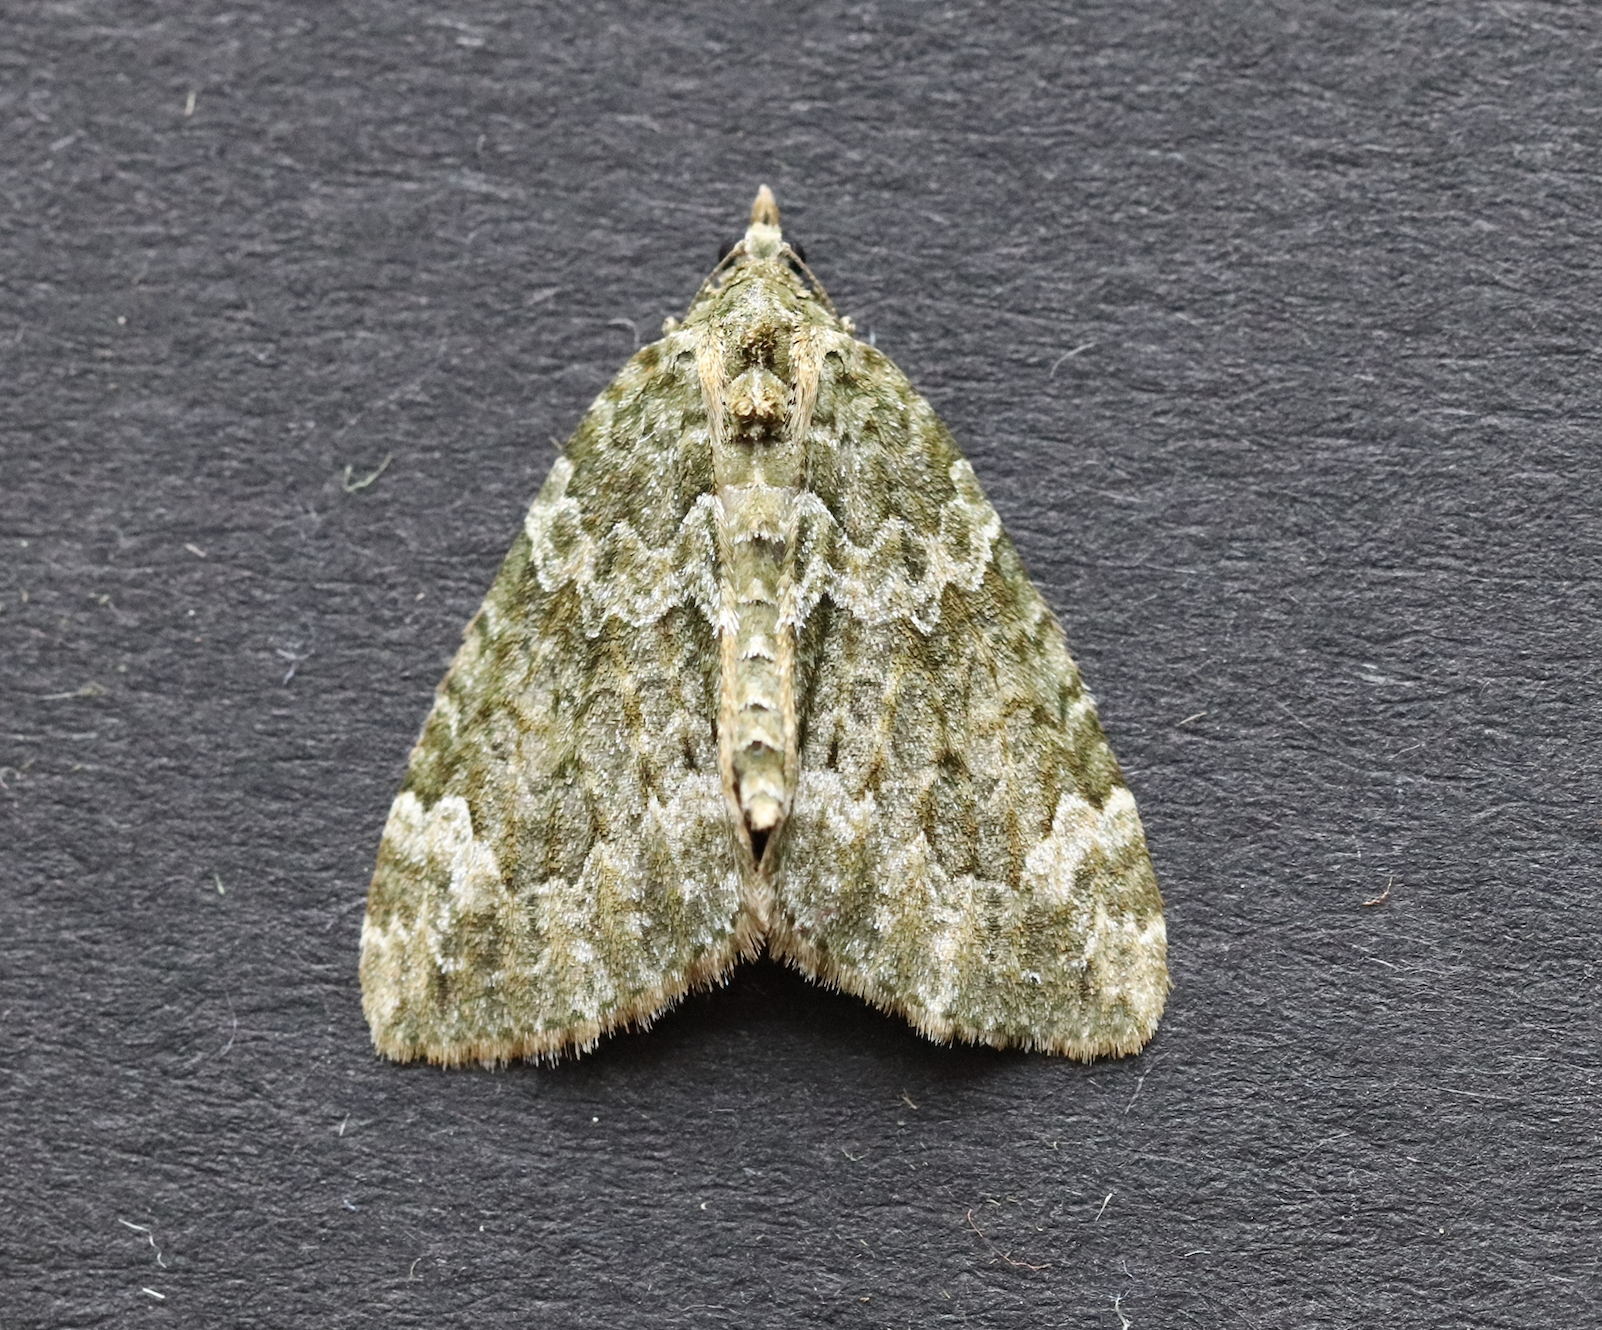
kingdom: Animalia
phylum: Arthropoda
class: Insecta
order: Lepidoptera
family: Geometridae
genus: Chloroclysta
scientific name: Chloroclysta siterata
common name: Red-green carpet
